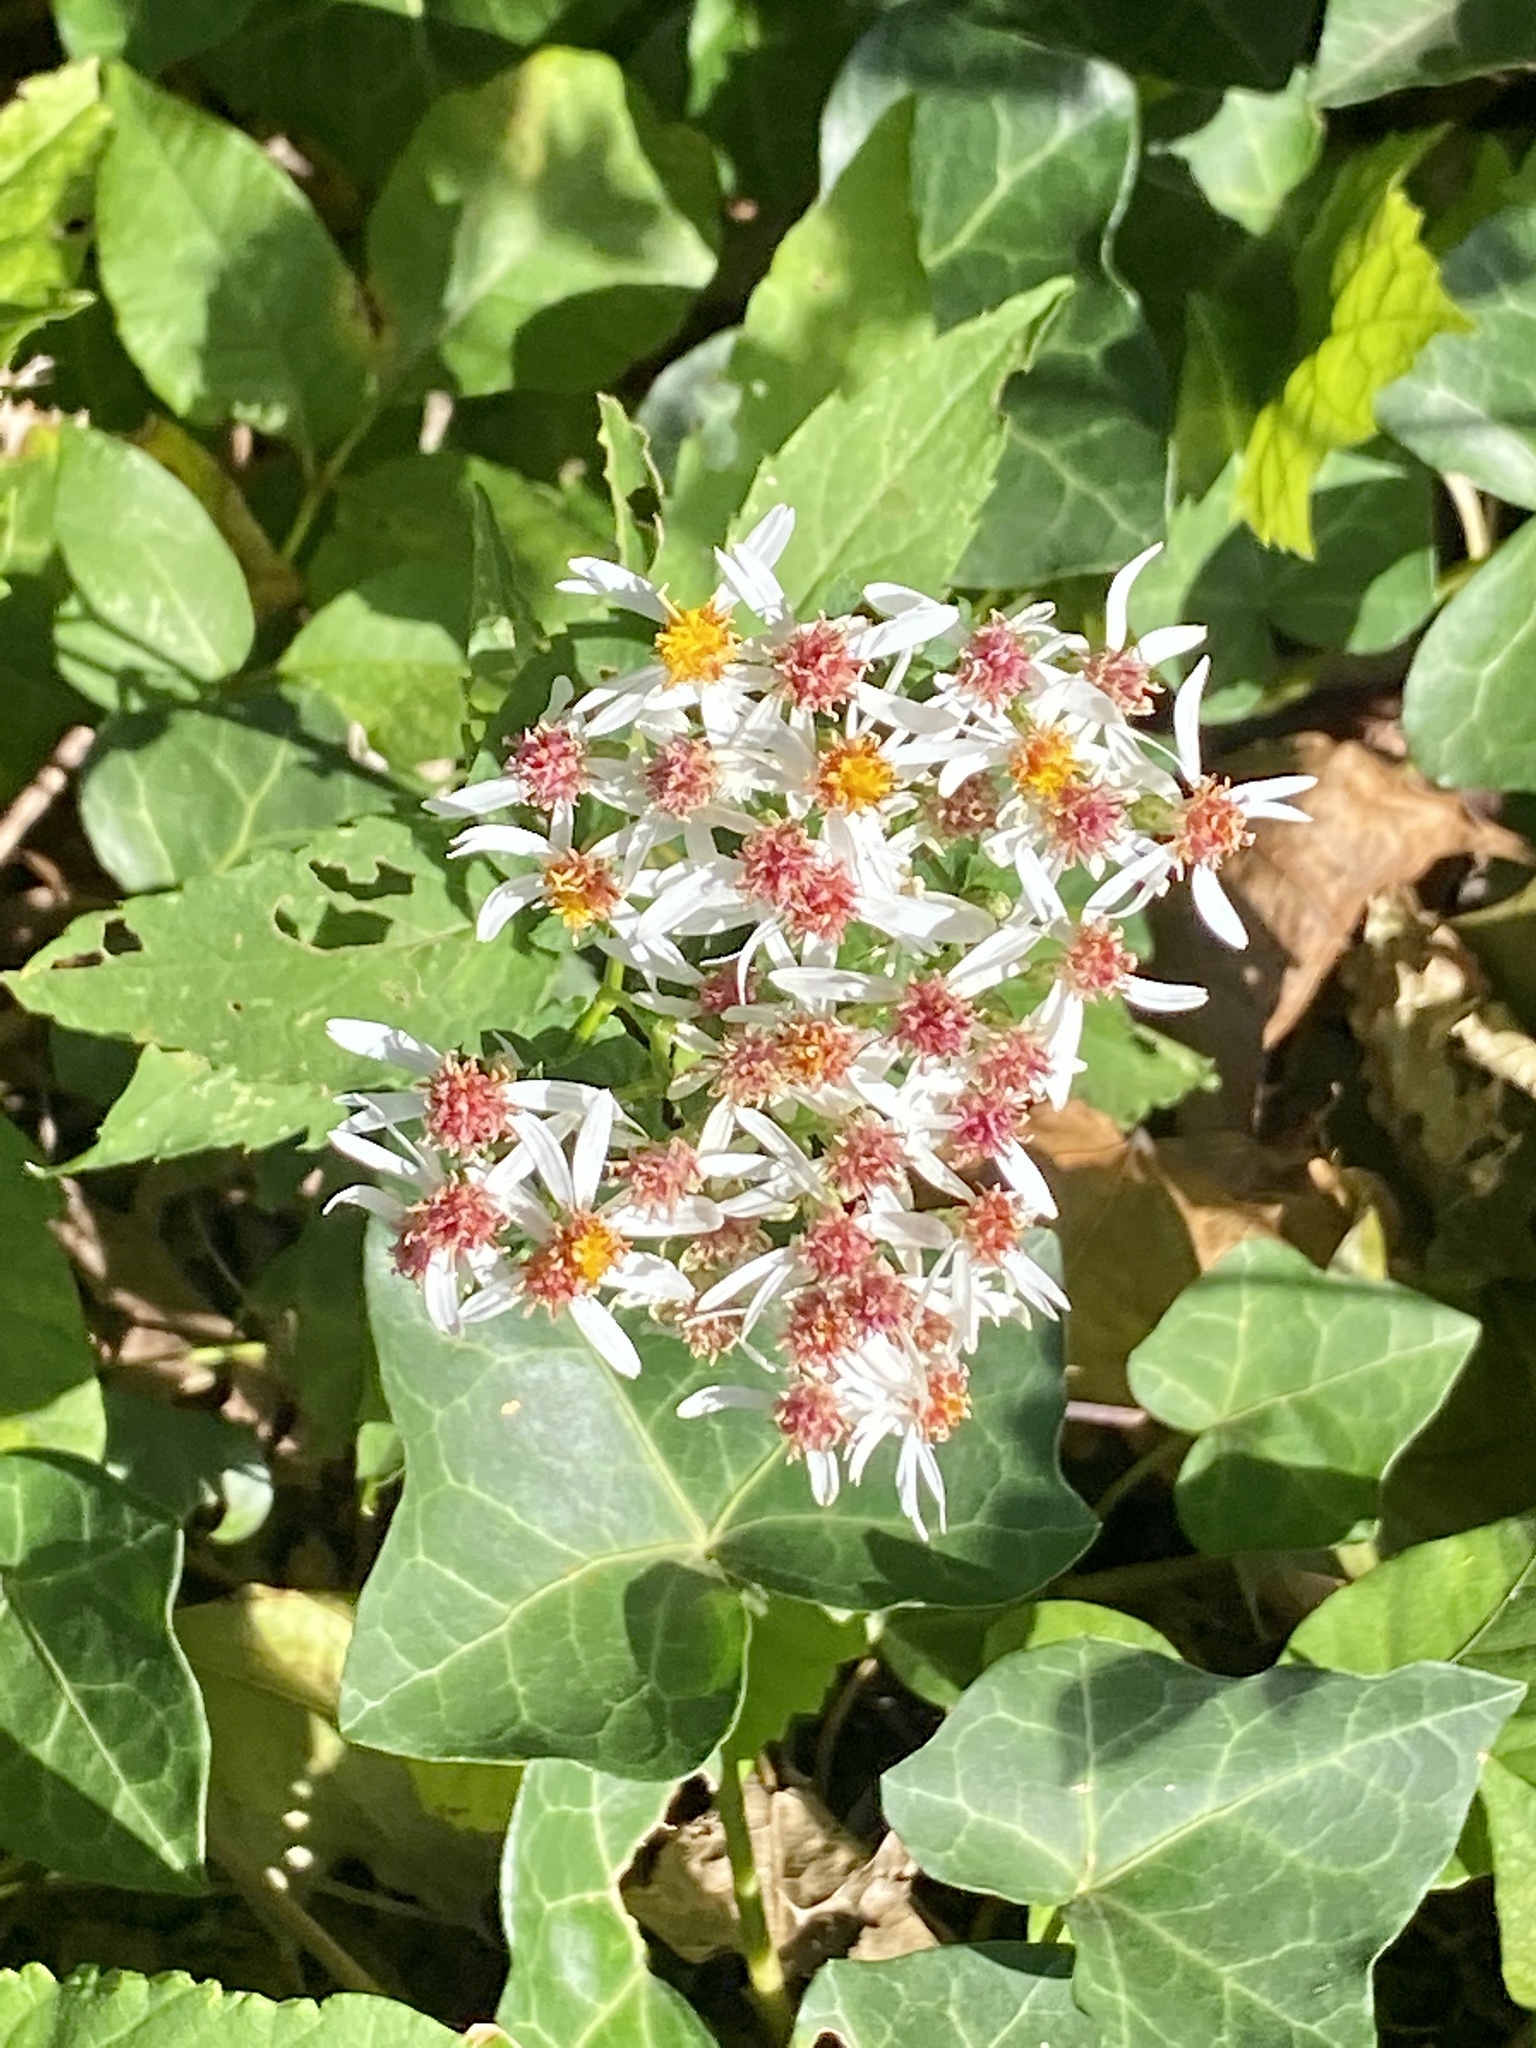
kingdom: Plantae
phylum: Tracheophyta
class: Magnoliopsida
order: Asterales
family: Asteraceae
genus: Eurybia
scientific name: Eurybia divaricata
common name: White wood aster
